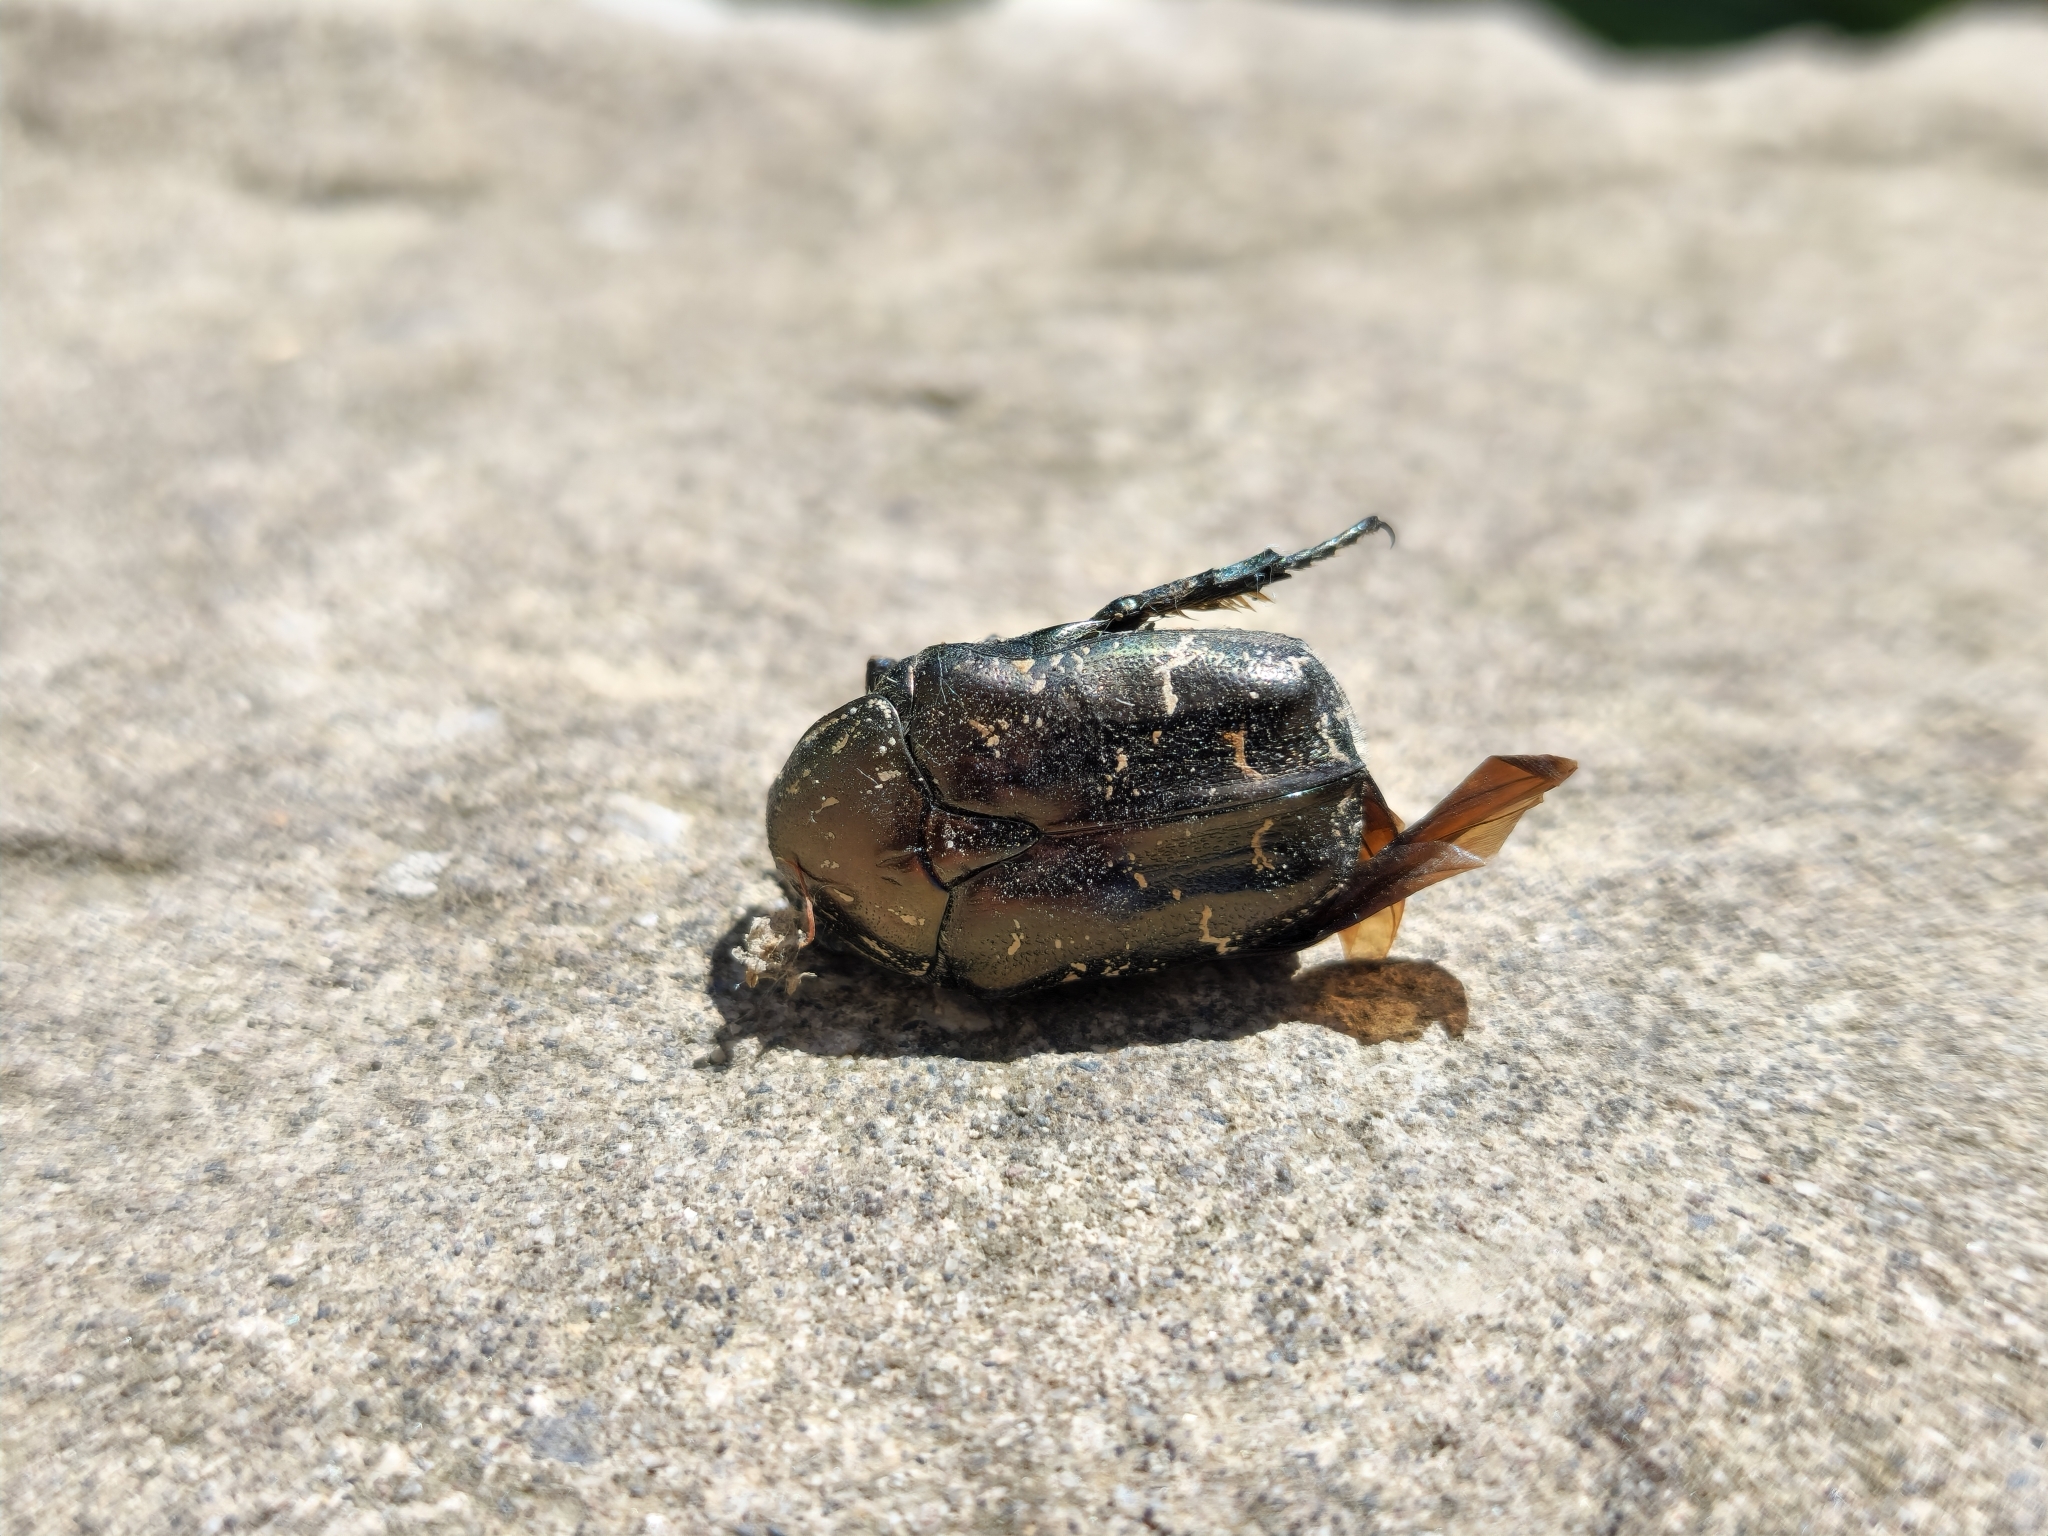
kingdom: Animalia
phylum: Arthropoda
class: Insecta
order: Coleoptera
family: Scarabaeidae
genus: Protaetia
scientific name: Protaetia cuprea
